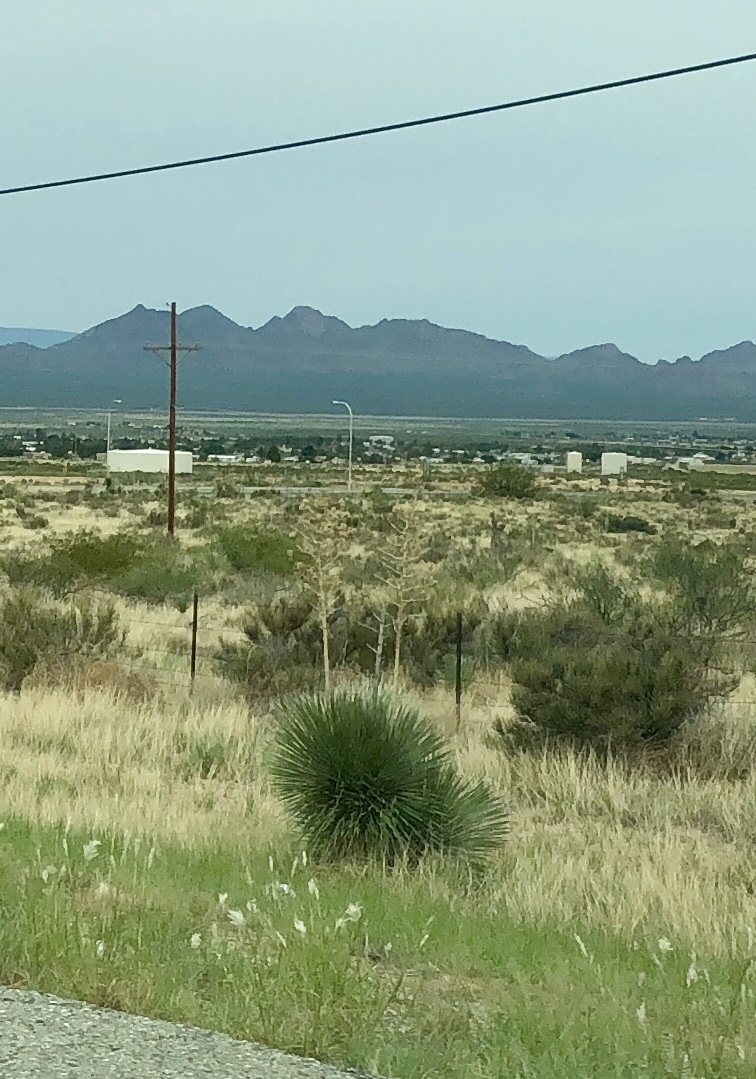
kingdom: Plantae
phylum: Tracheophyta
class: Liliopsida
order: Asparagales
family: Asparagaceae
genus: Yucca
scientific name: Yucca elata
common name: Palmella
